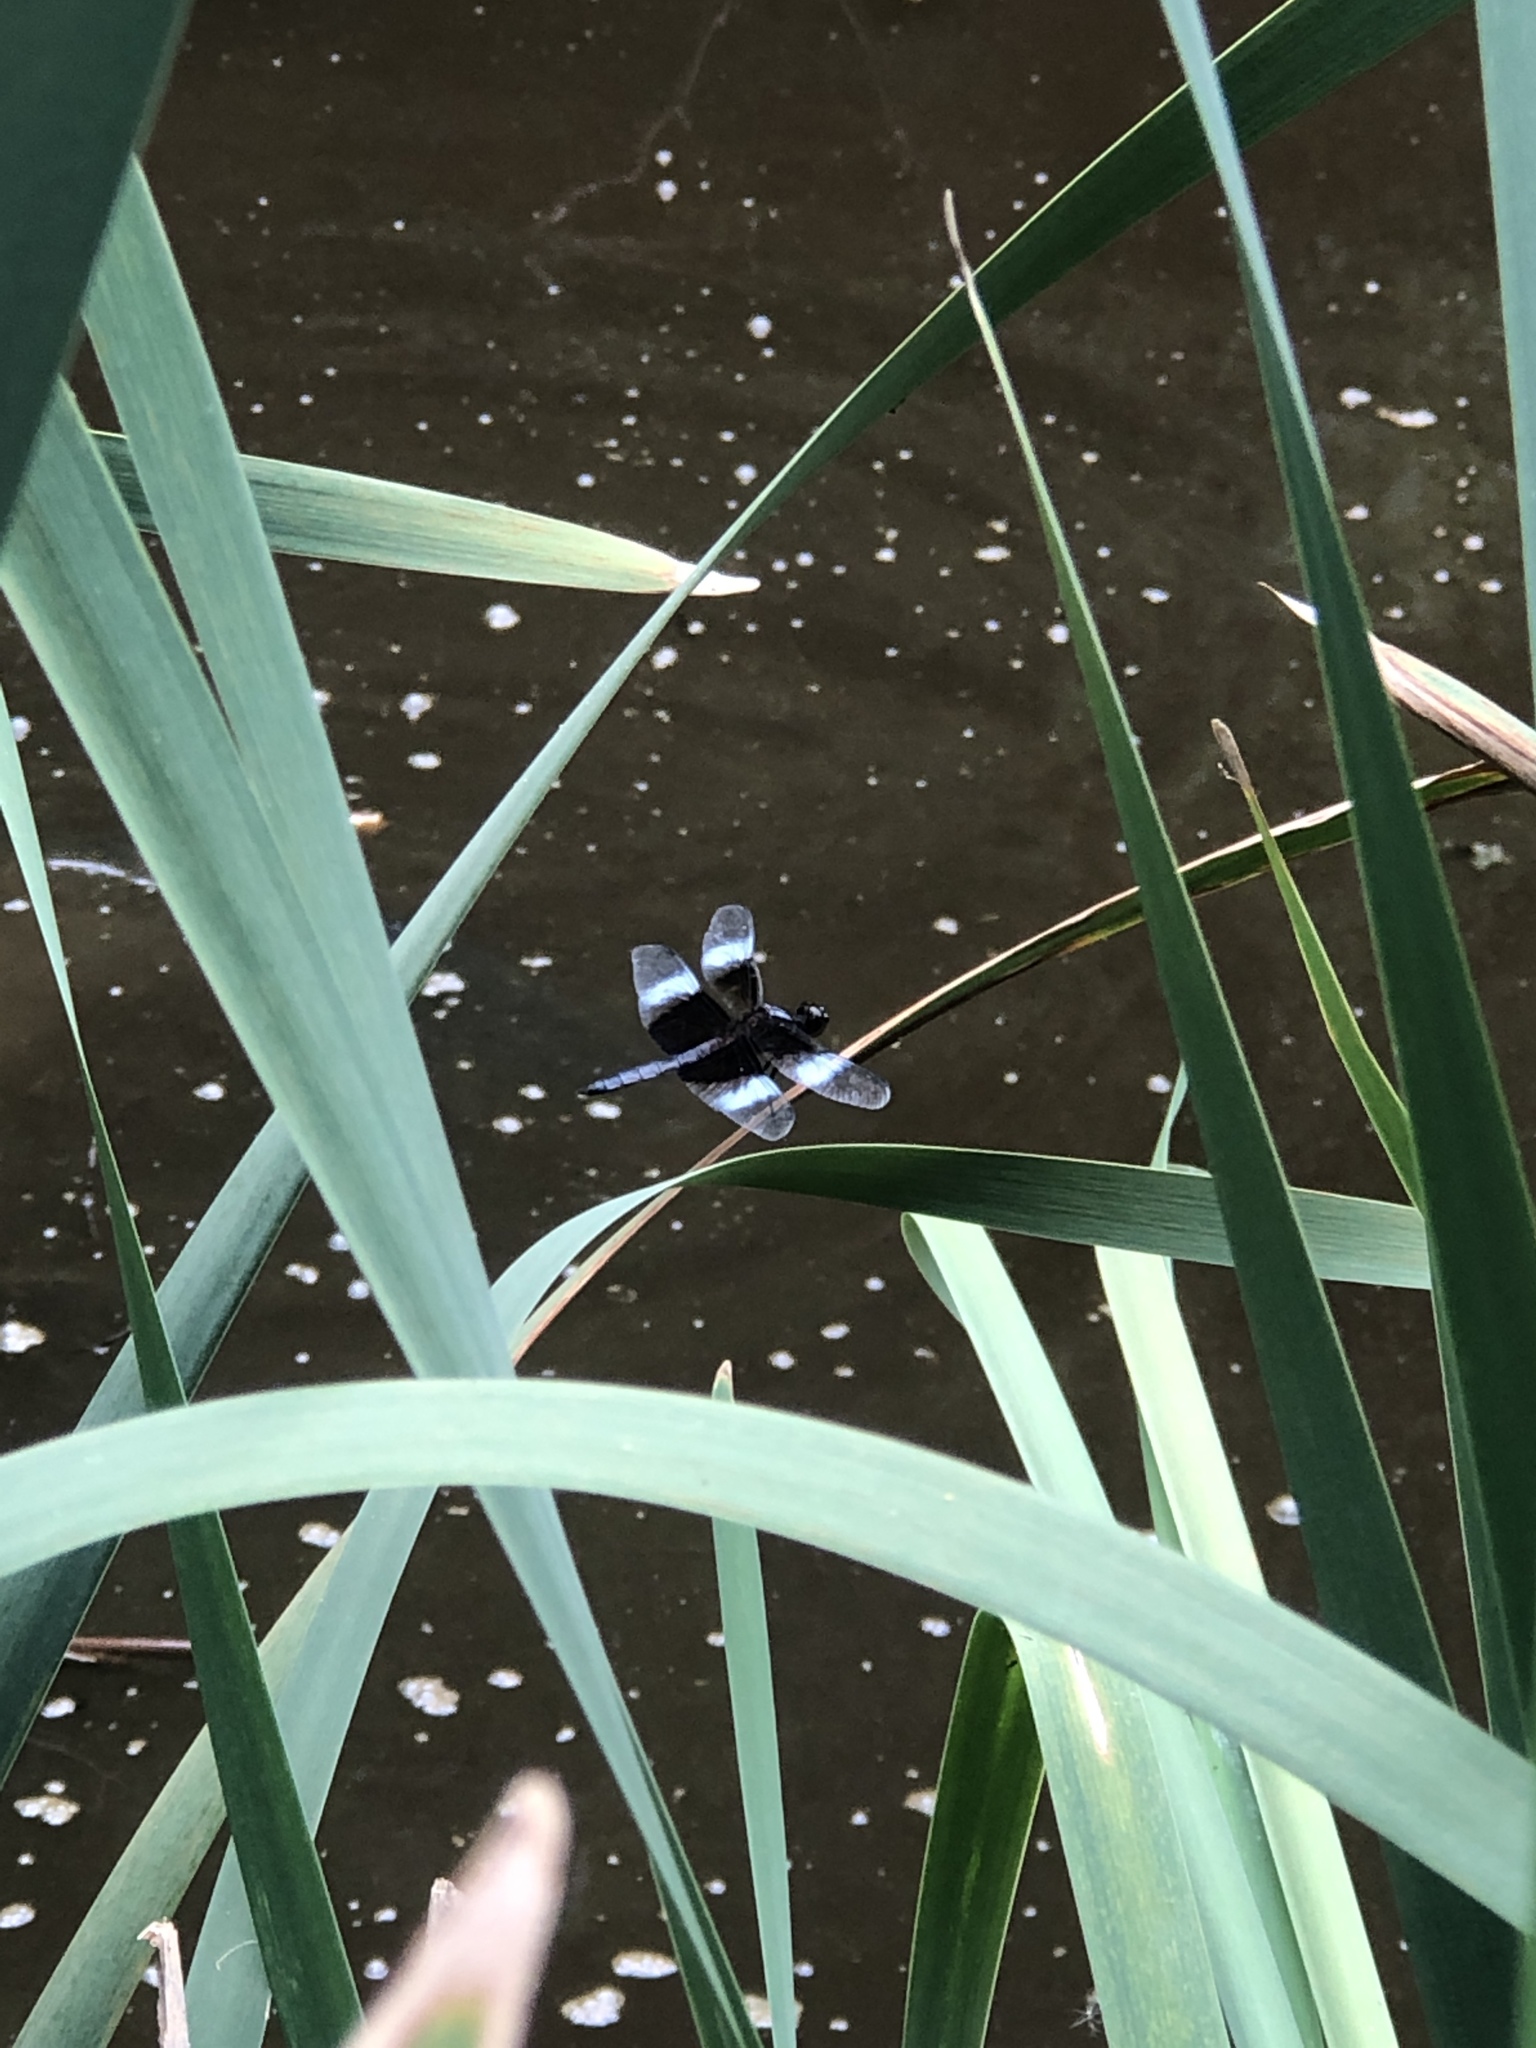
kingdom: Animalia
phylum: Arthropoda
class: Insecta
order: Odonata
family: Libellulidae
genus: Libellula
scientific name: Libellula luctuosa
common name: Widow skimmer
